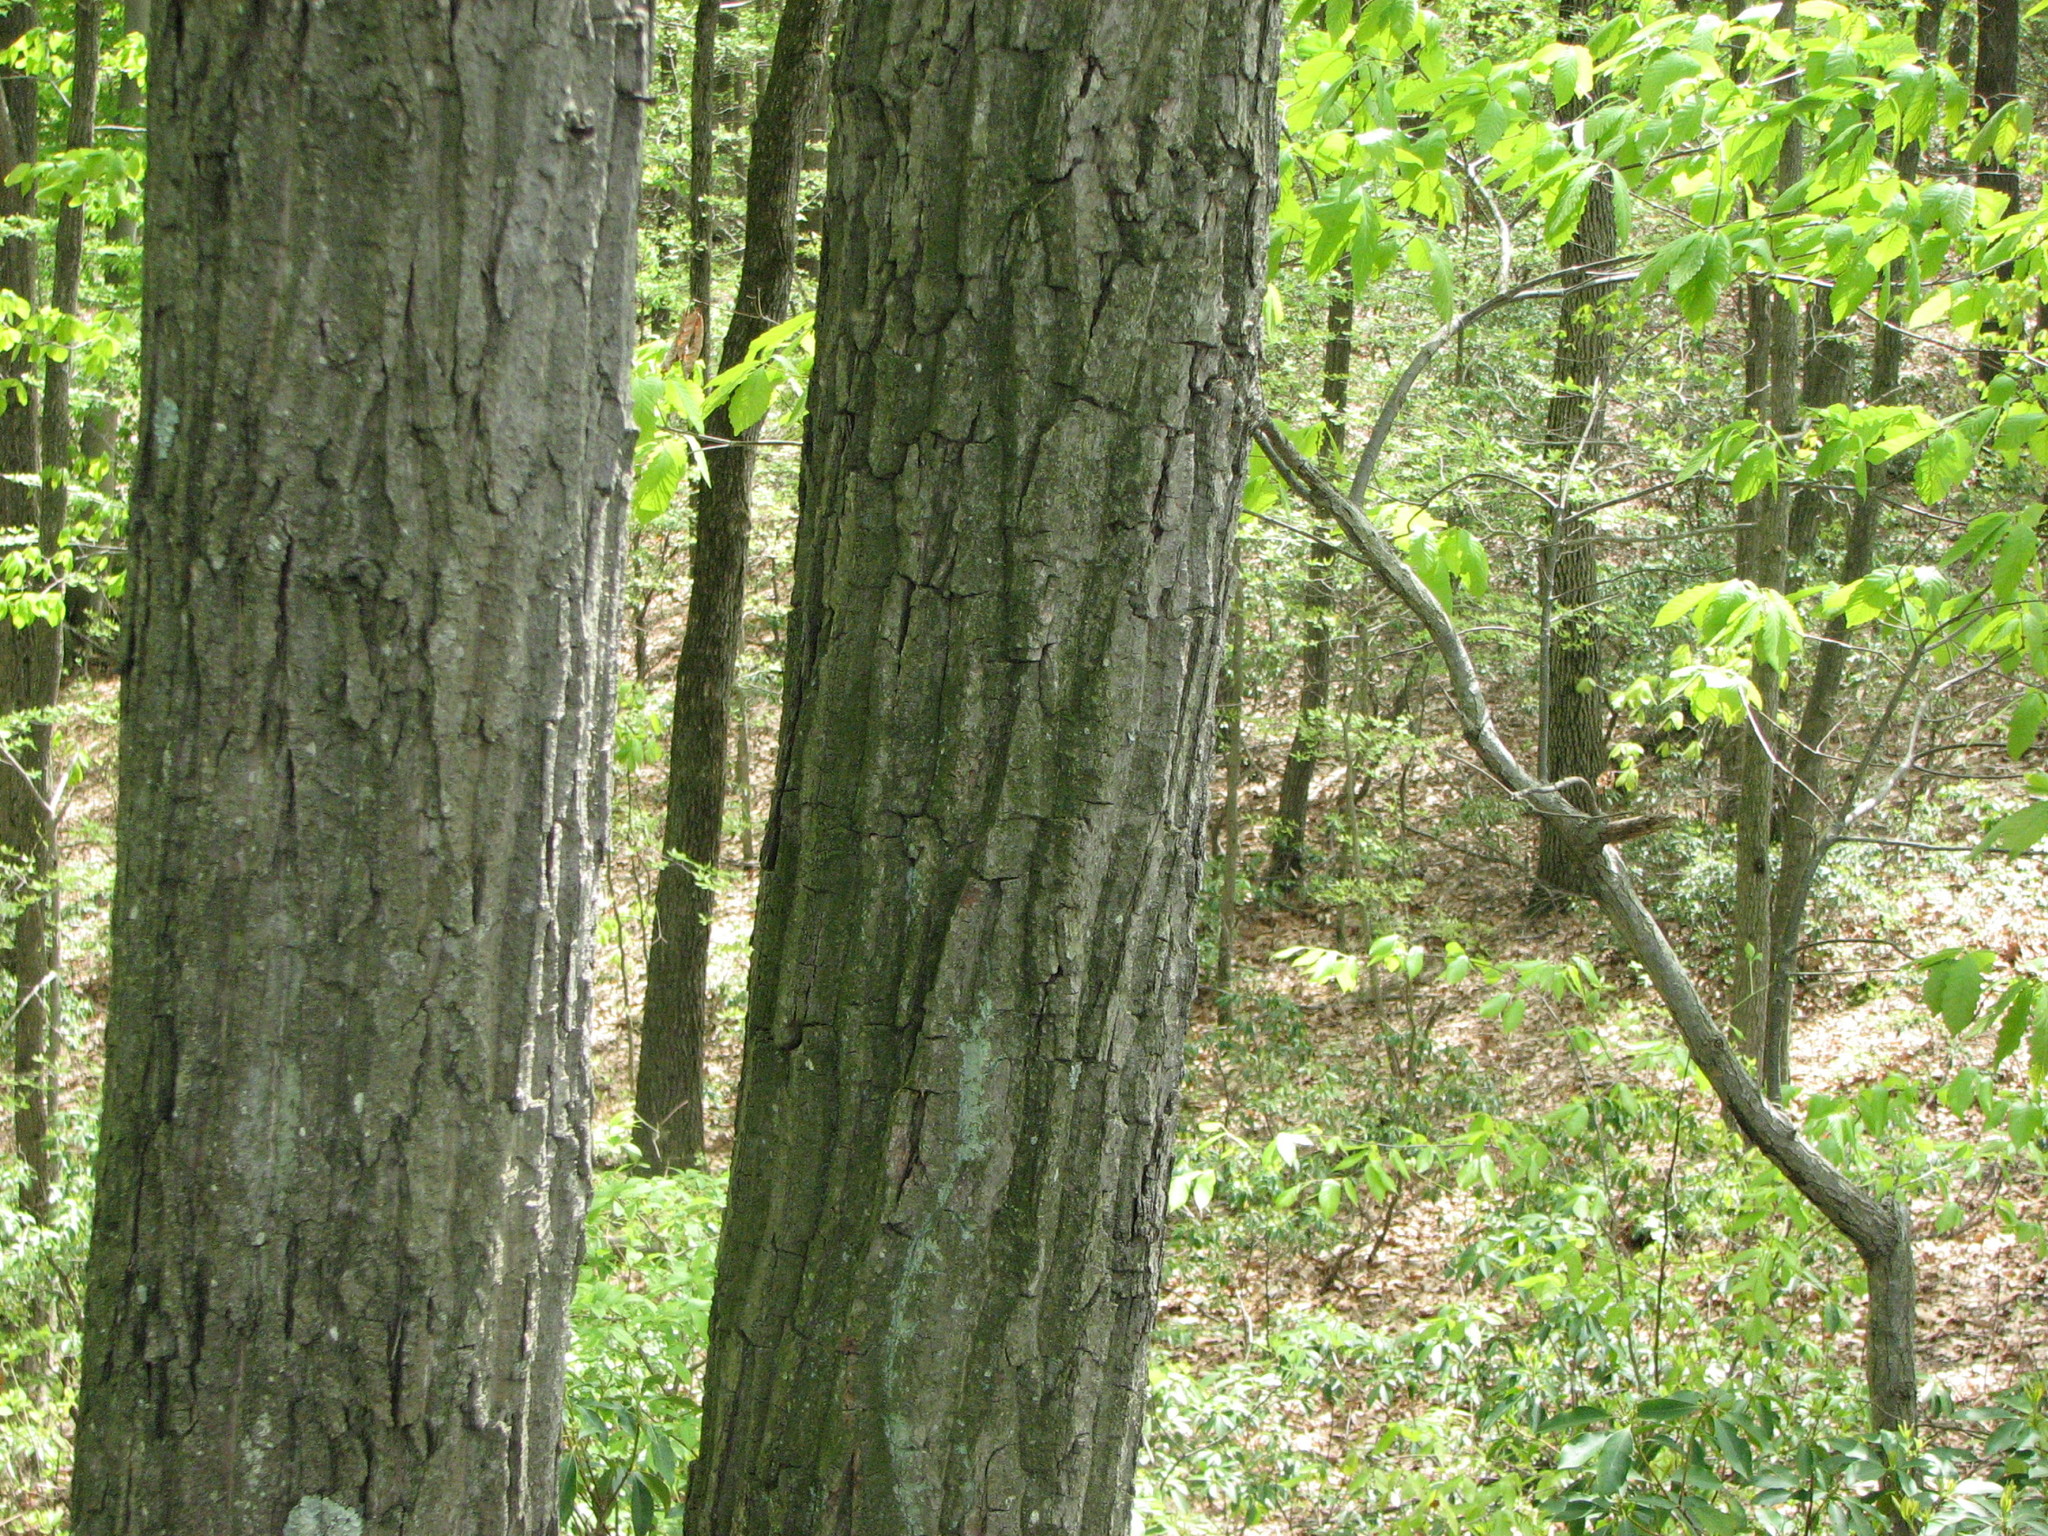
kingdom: Plantae
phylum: Tracheophyta
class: Magnoliopsida
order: Fagales
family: Fagaceae
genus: Quercus
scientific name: Quercus montana
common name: Chestnut oak
